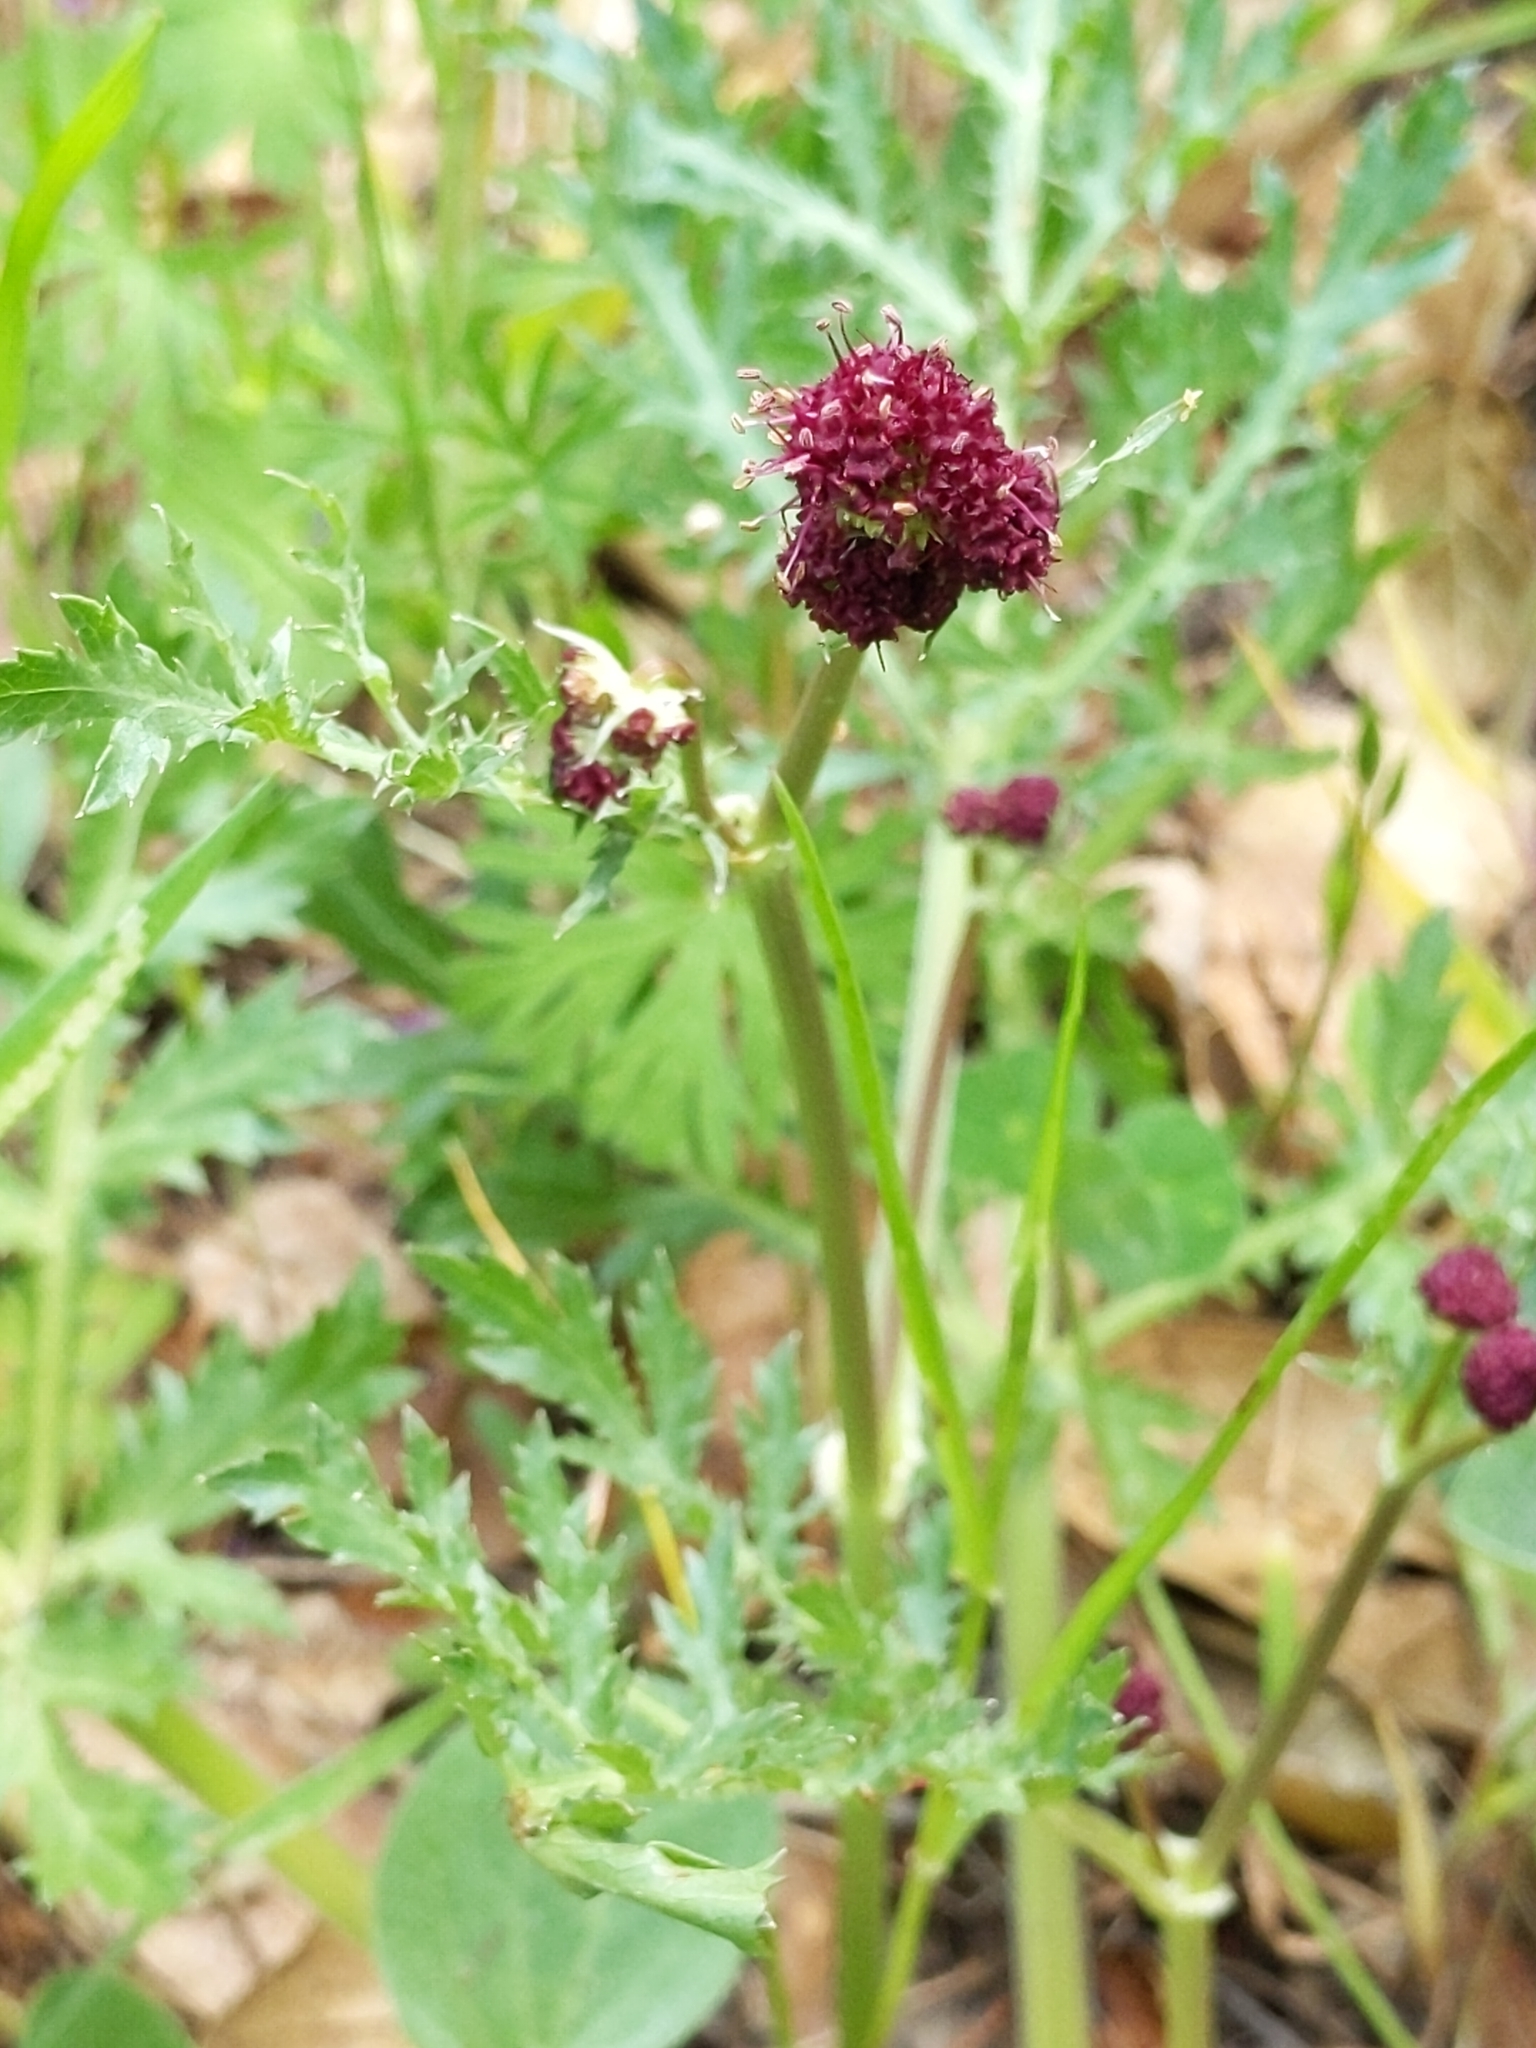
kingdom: Plantae
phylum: Tracheophyta
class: Magnoliopsida
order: Apiales
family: Apiaceae
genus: Sanicula
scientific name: Sanicula bipinnatifida
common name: Shoe-buttons
